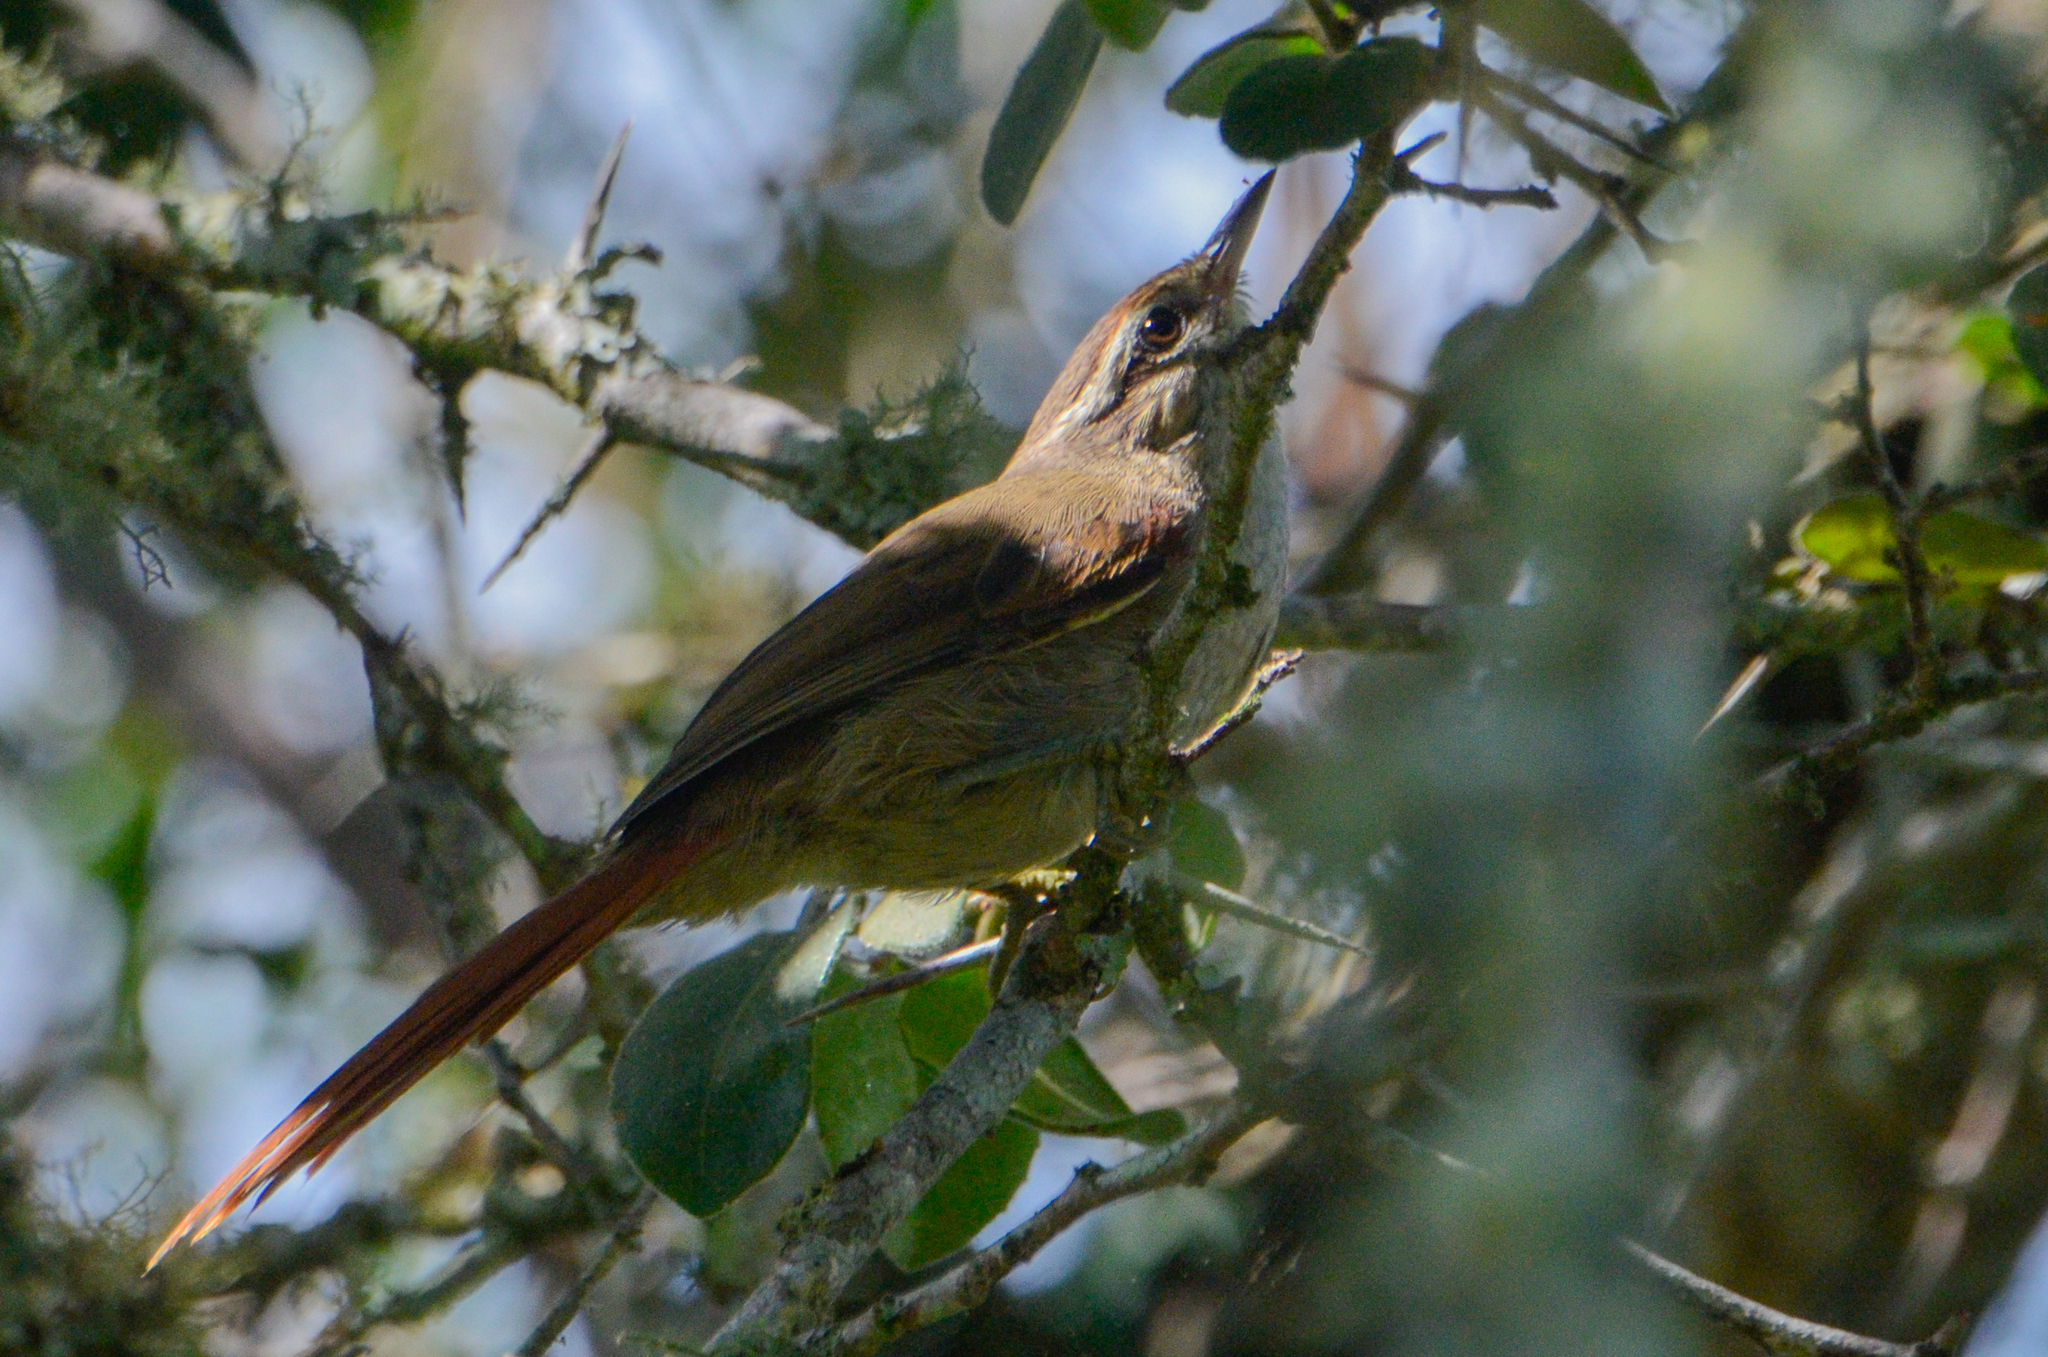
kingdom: Animalia
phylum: Chordata
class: Aves
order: Passeriformes
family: Furnariidae
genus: Cranioleuca
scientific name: Cranioleuca pyrrhophia
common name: Stripe-crowned spinetail
